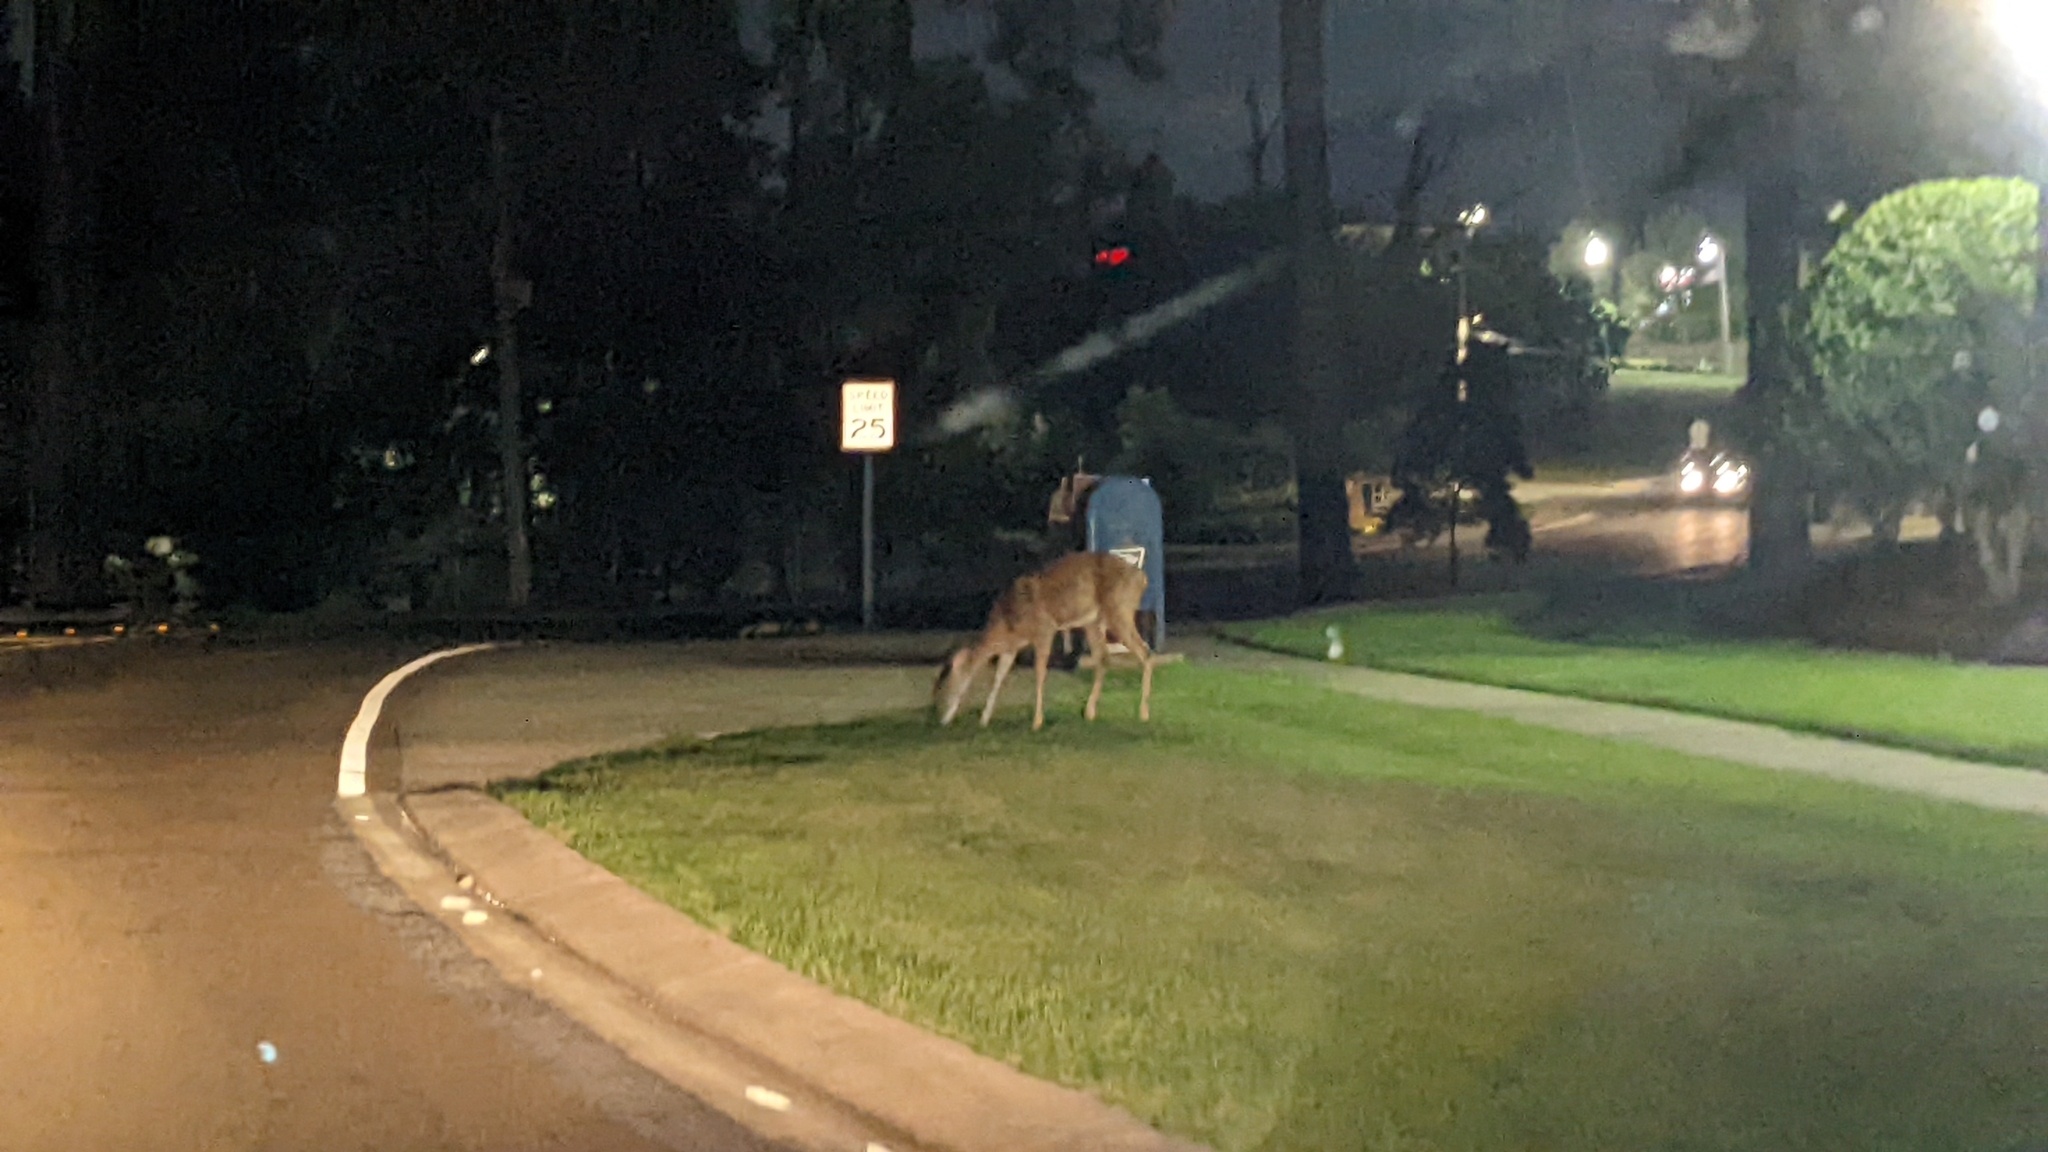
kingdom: Animalia
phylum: Chordata
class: Mammalia
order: Artiodactyla
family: Cervidae
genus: Odocoileus
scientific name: Odocoileus virginianus
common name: White-tailed deer
